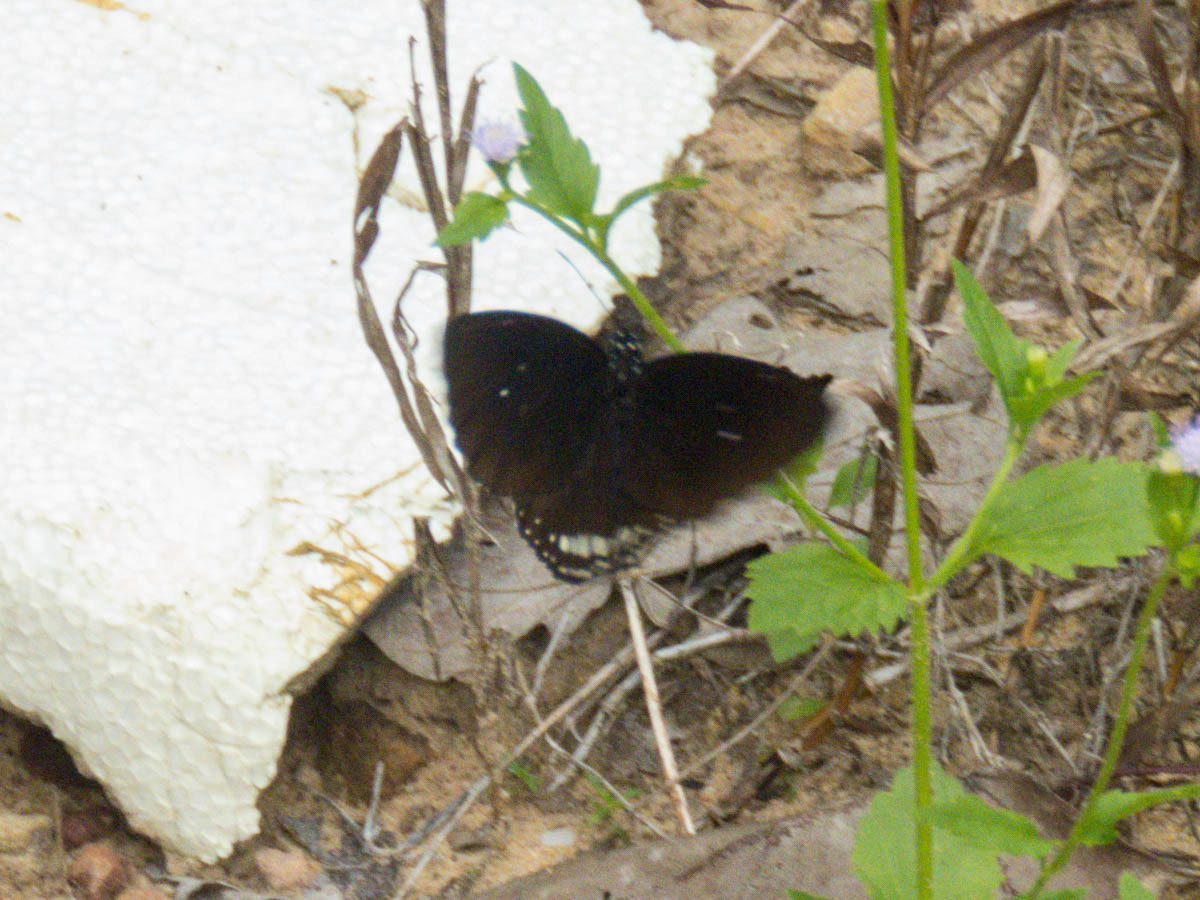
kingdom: Animalia
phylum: Arthropoda
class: Insecta
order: Lepidoptera
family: Nymphalidae
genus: Euploea
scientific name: Euploea modesta
